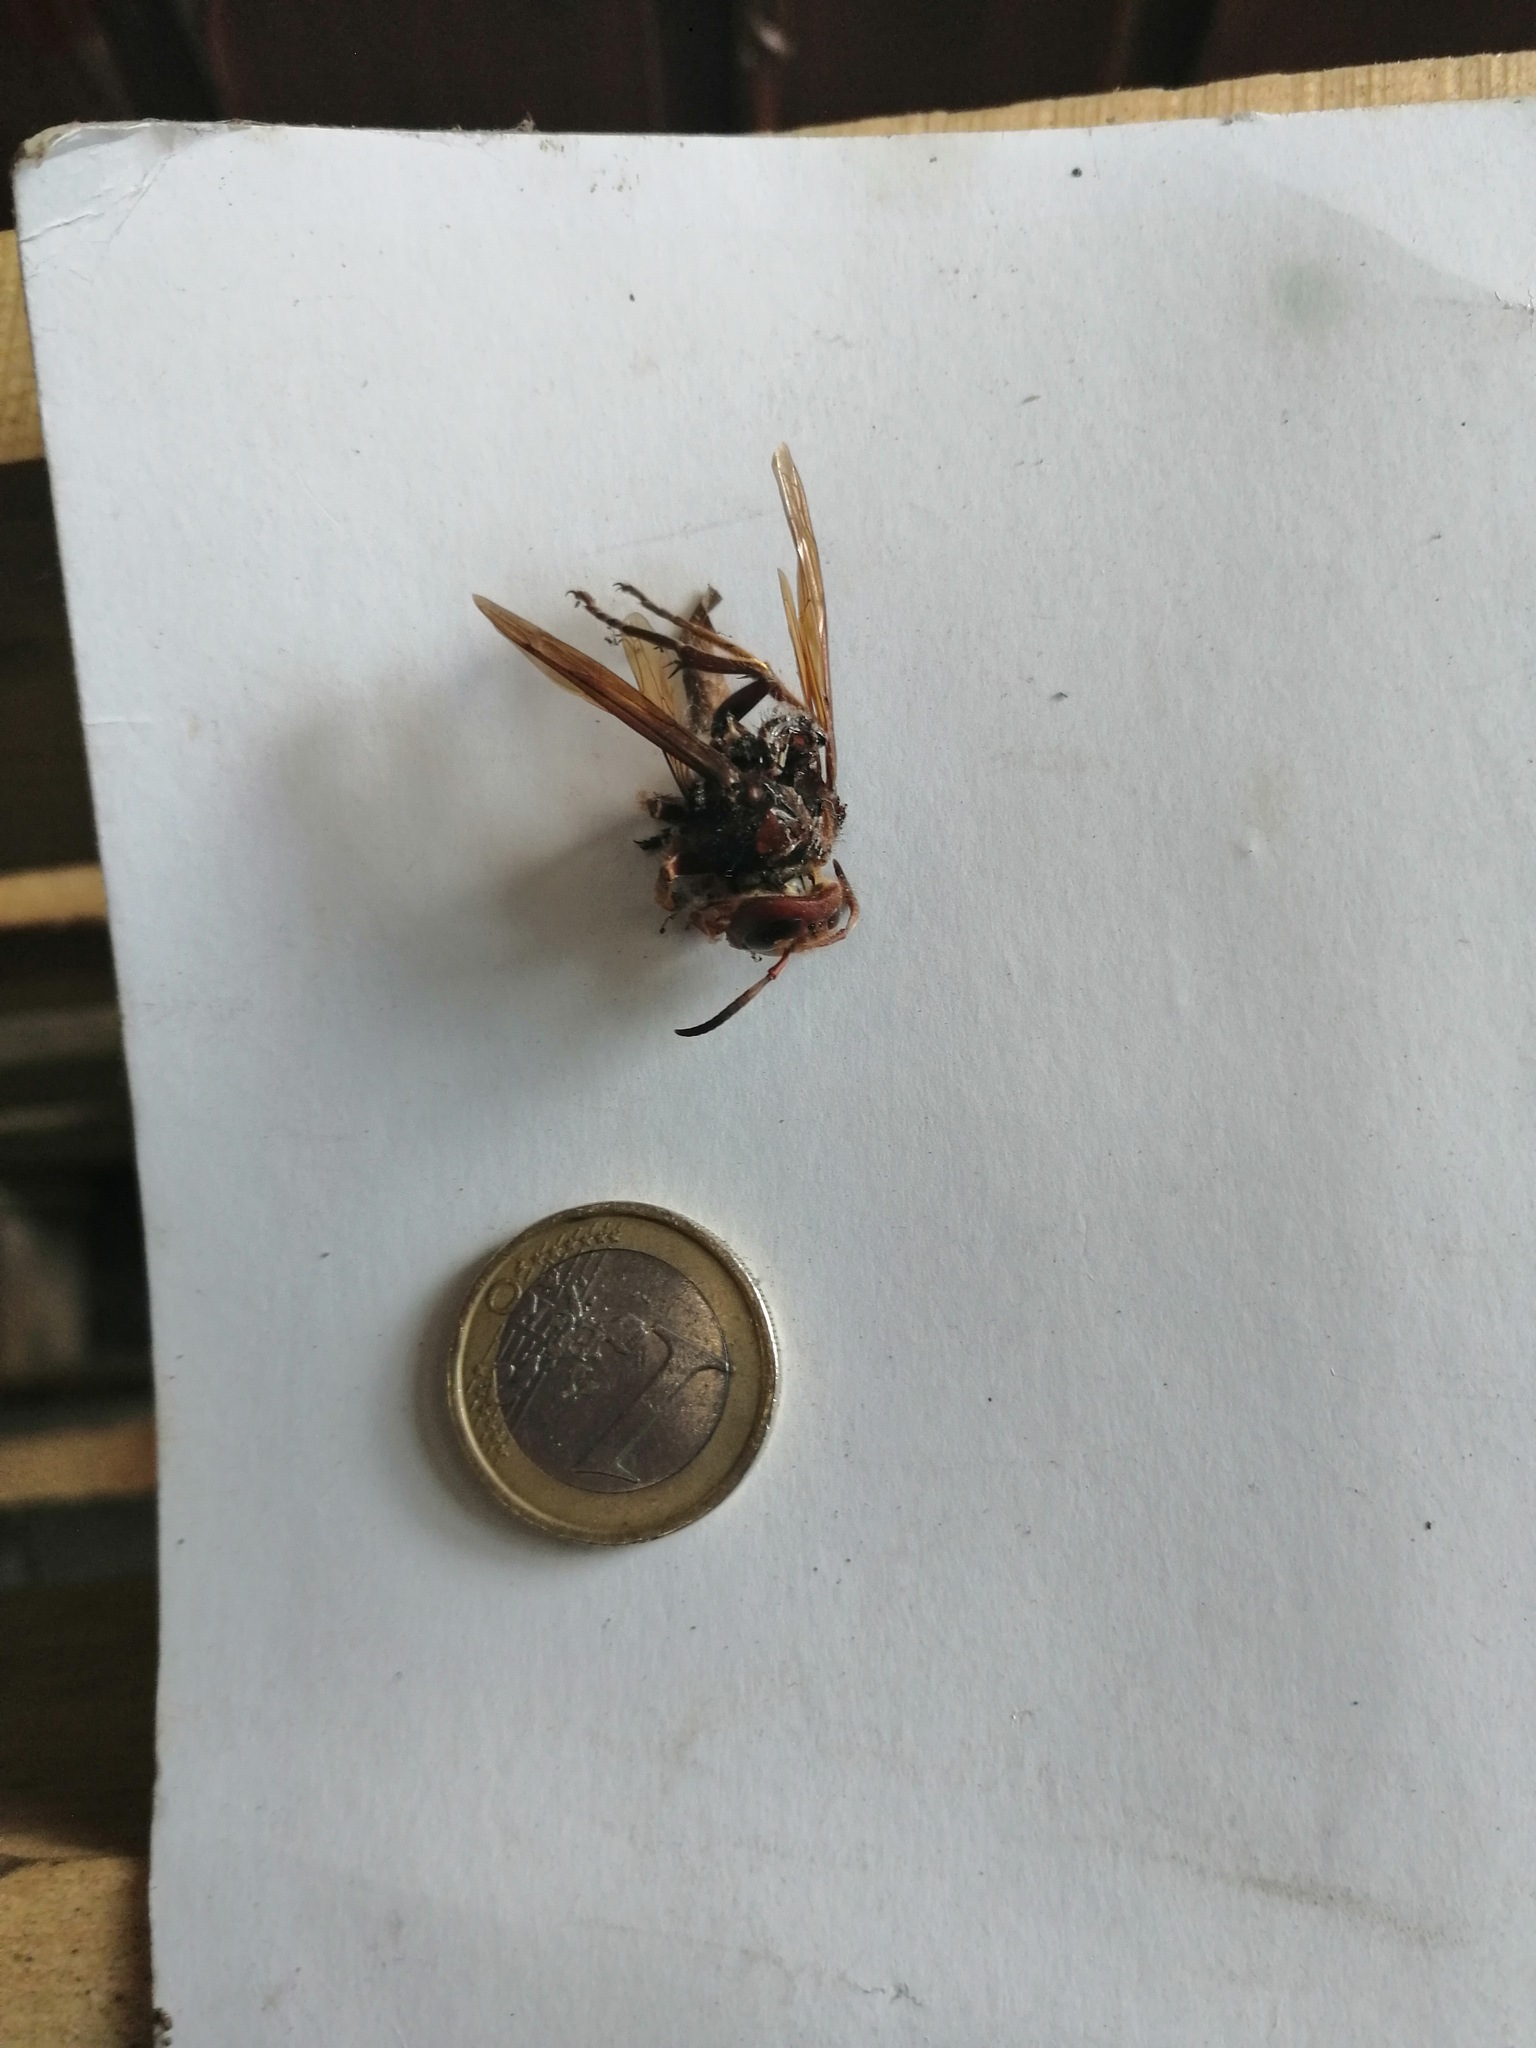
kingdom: Animalia
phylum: Arthropoda
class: Insecta
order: Hymenoptera
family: Vespidae
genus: Vespa
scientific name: Vespa crabro
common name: Hornet
